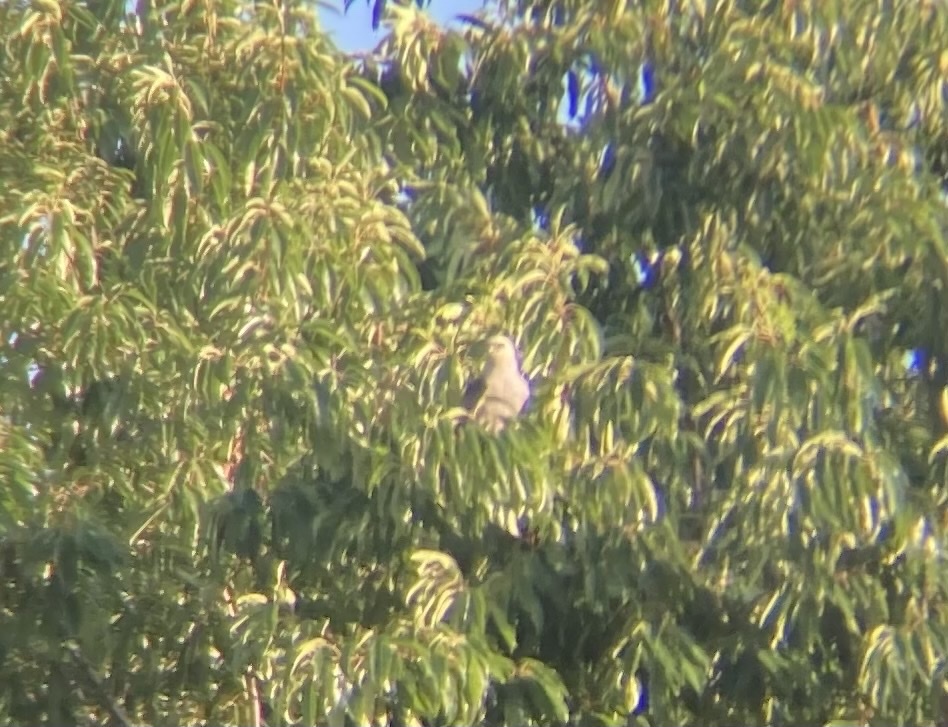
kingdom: Animalia
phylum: Chordata
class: Aves
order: Accipitriformes
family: Accipitridae
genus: Ictinia
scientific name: Ictinia mississippiensis
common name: Mississippi kite
